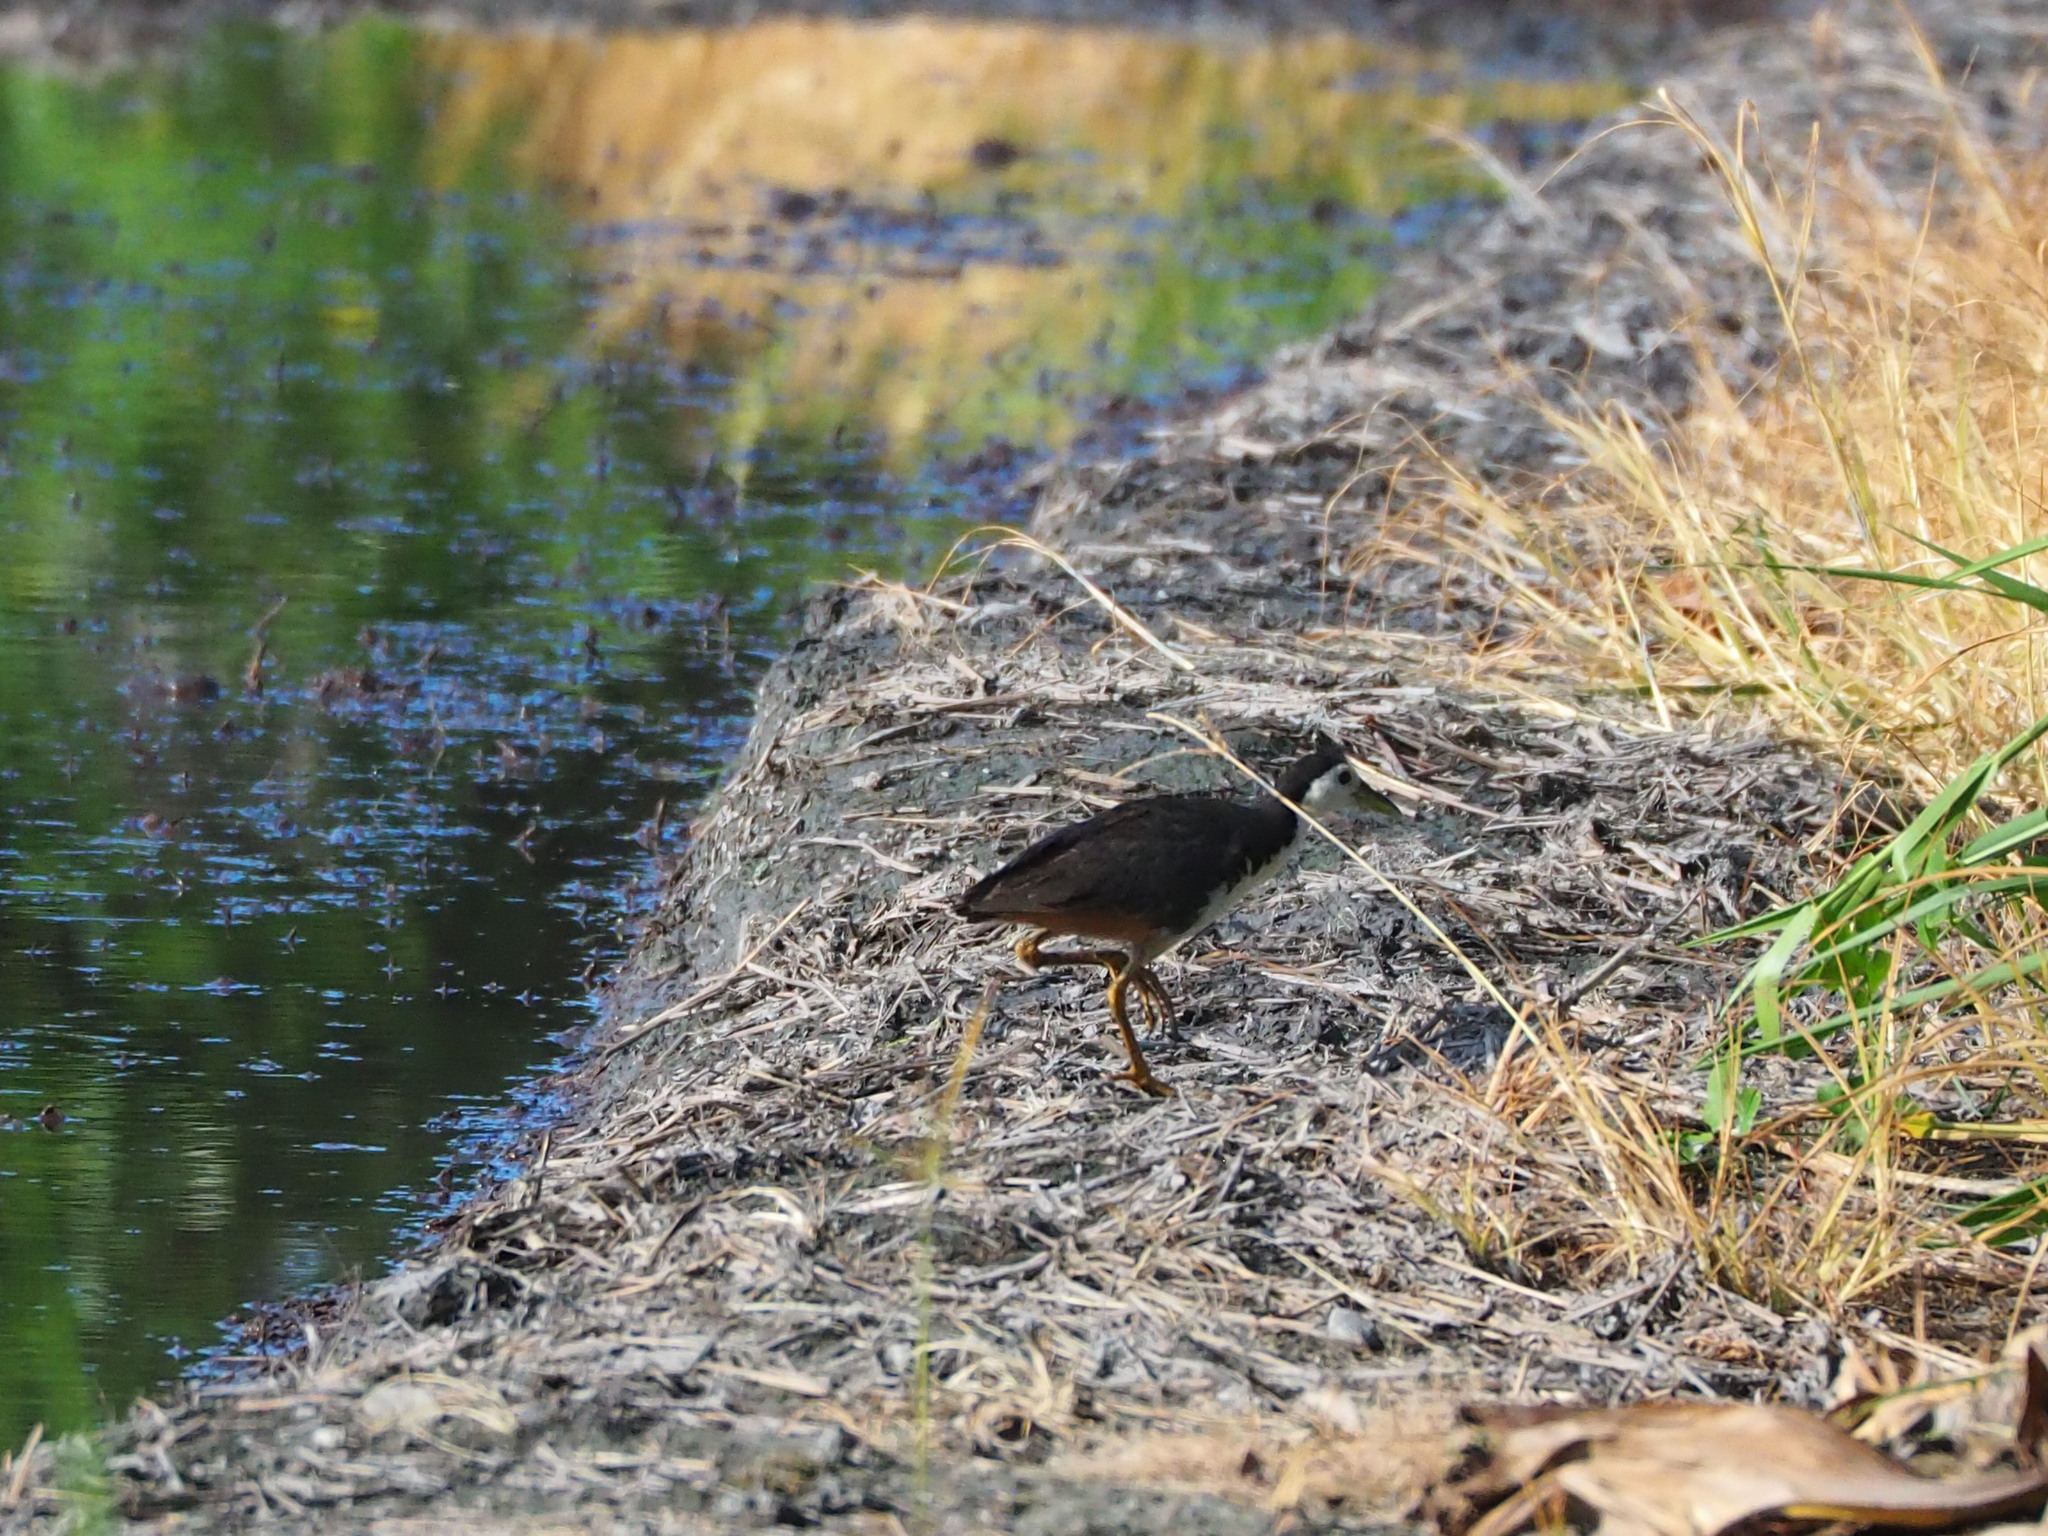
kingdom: Animalia
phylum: Chordata
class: Aves
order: Gruiformes
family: Rallidae
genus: Amaurornis
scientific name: Amaurornis phoenicurus
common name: White-breasted waterhen
